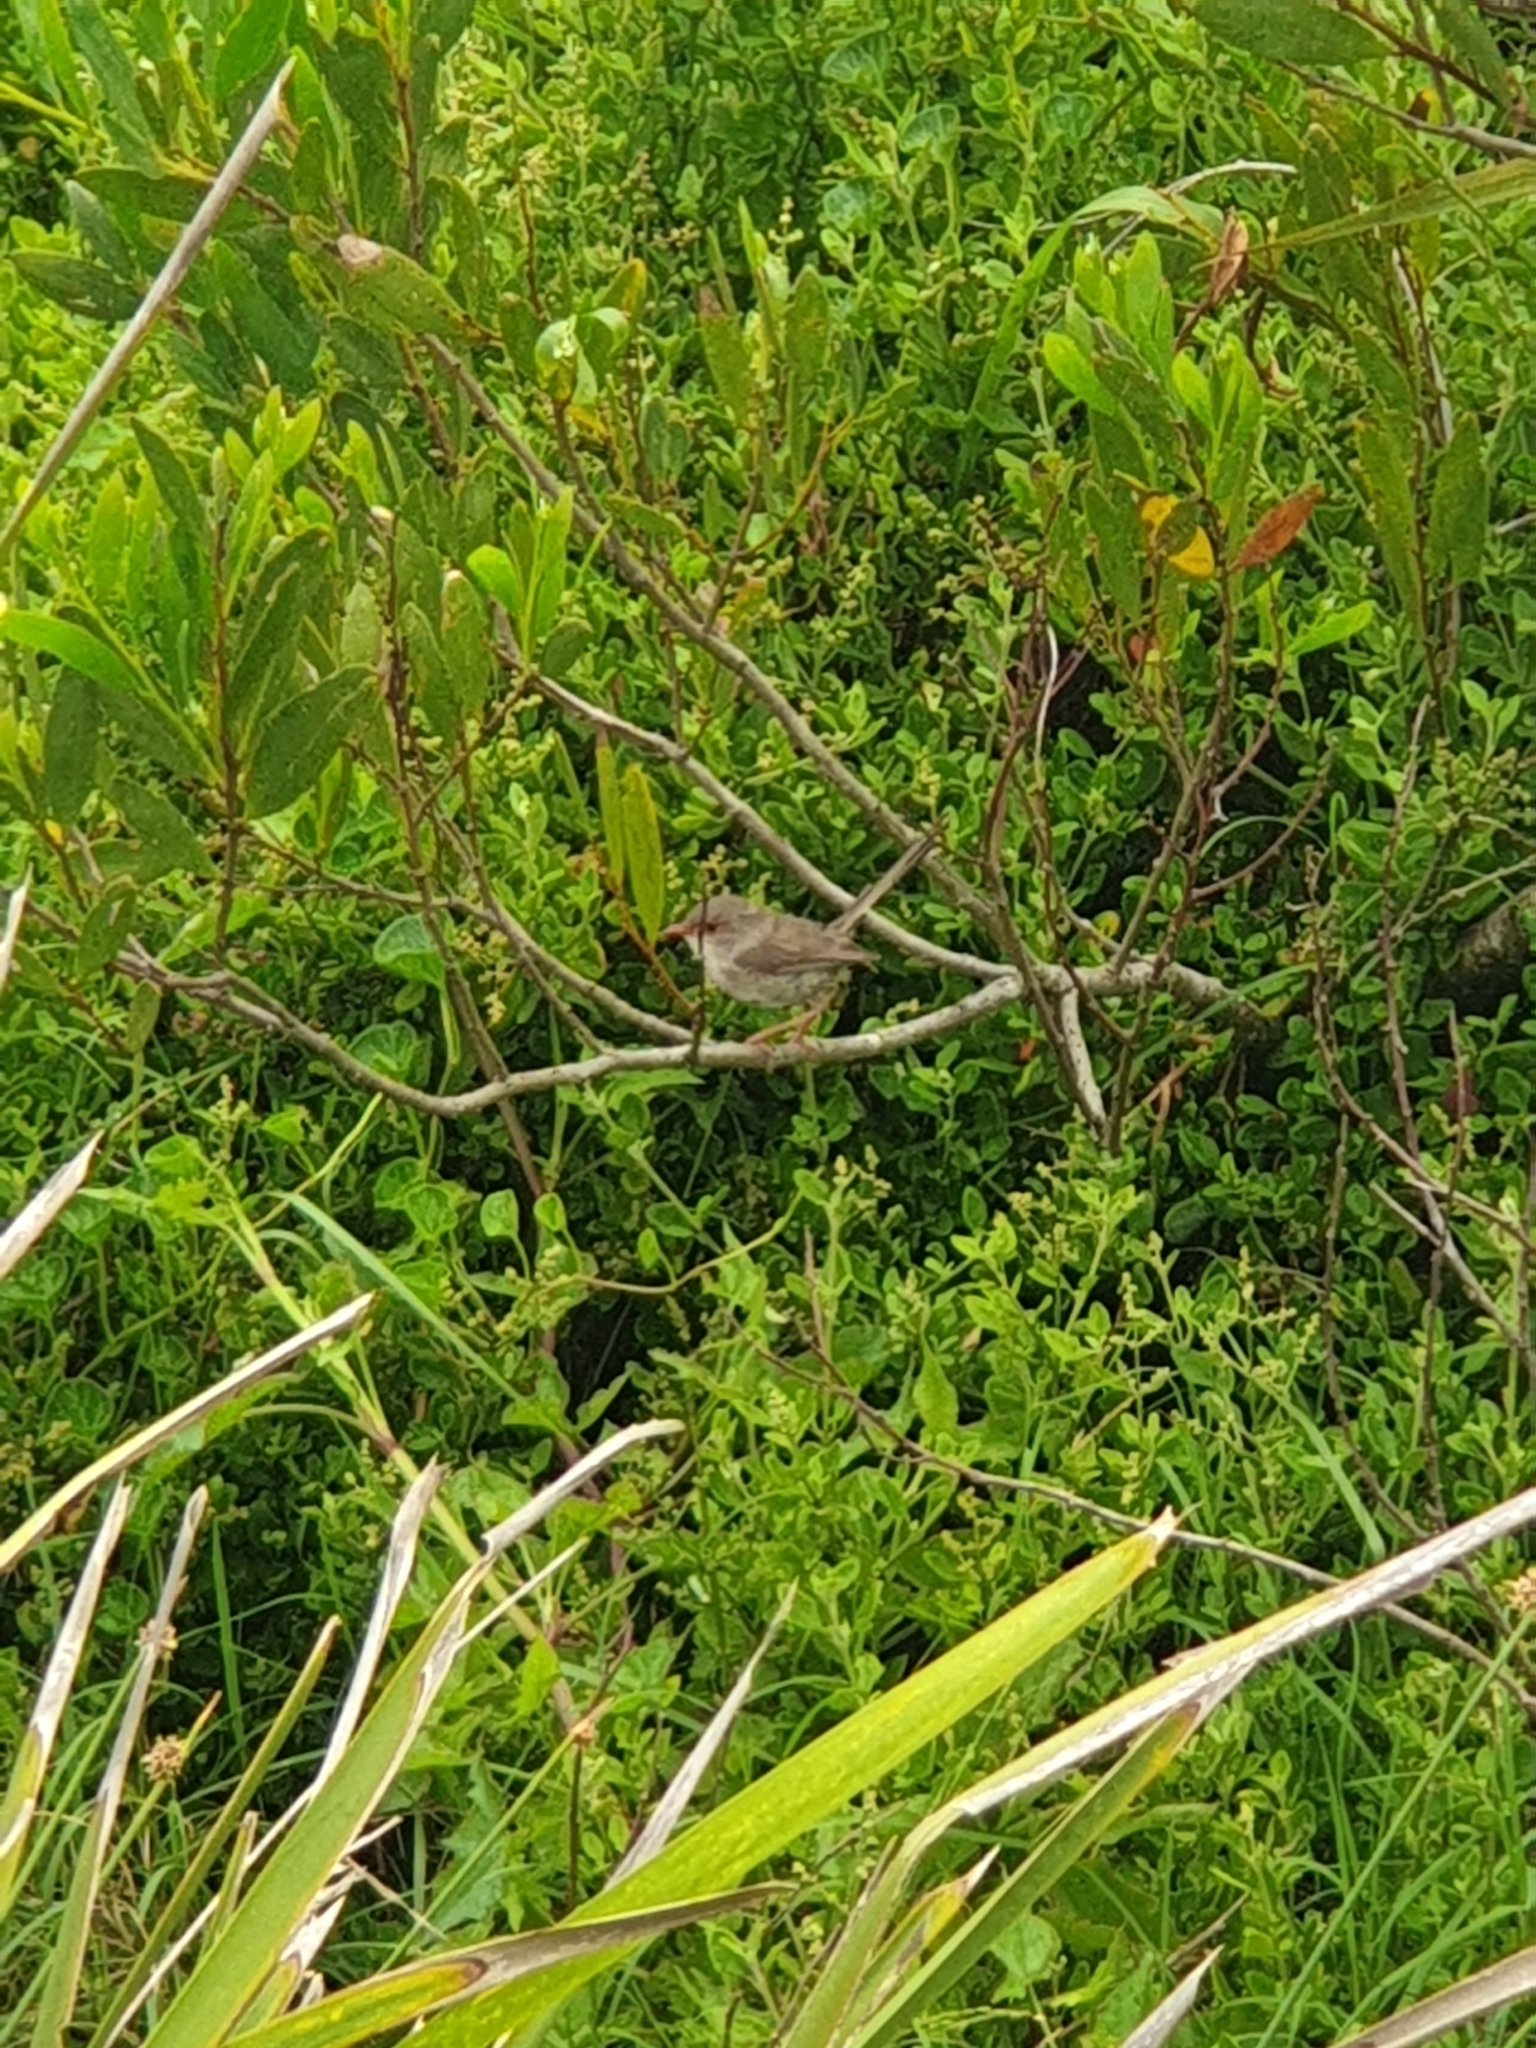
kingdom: Animalia
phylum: Chordata
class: Aves
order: Passeriformes
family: Maluridae
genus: Malurus
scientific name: Malurus cyaneus
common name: Superb fairywren
